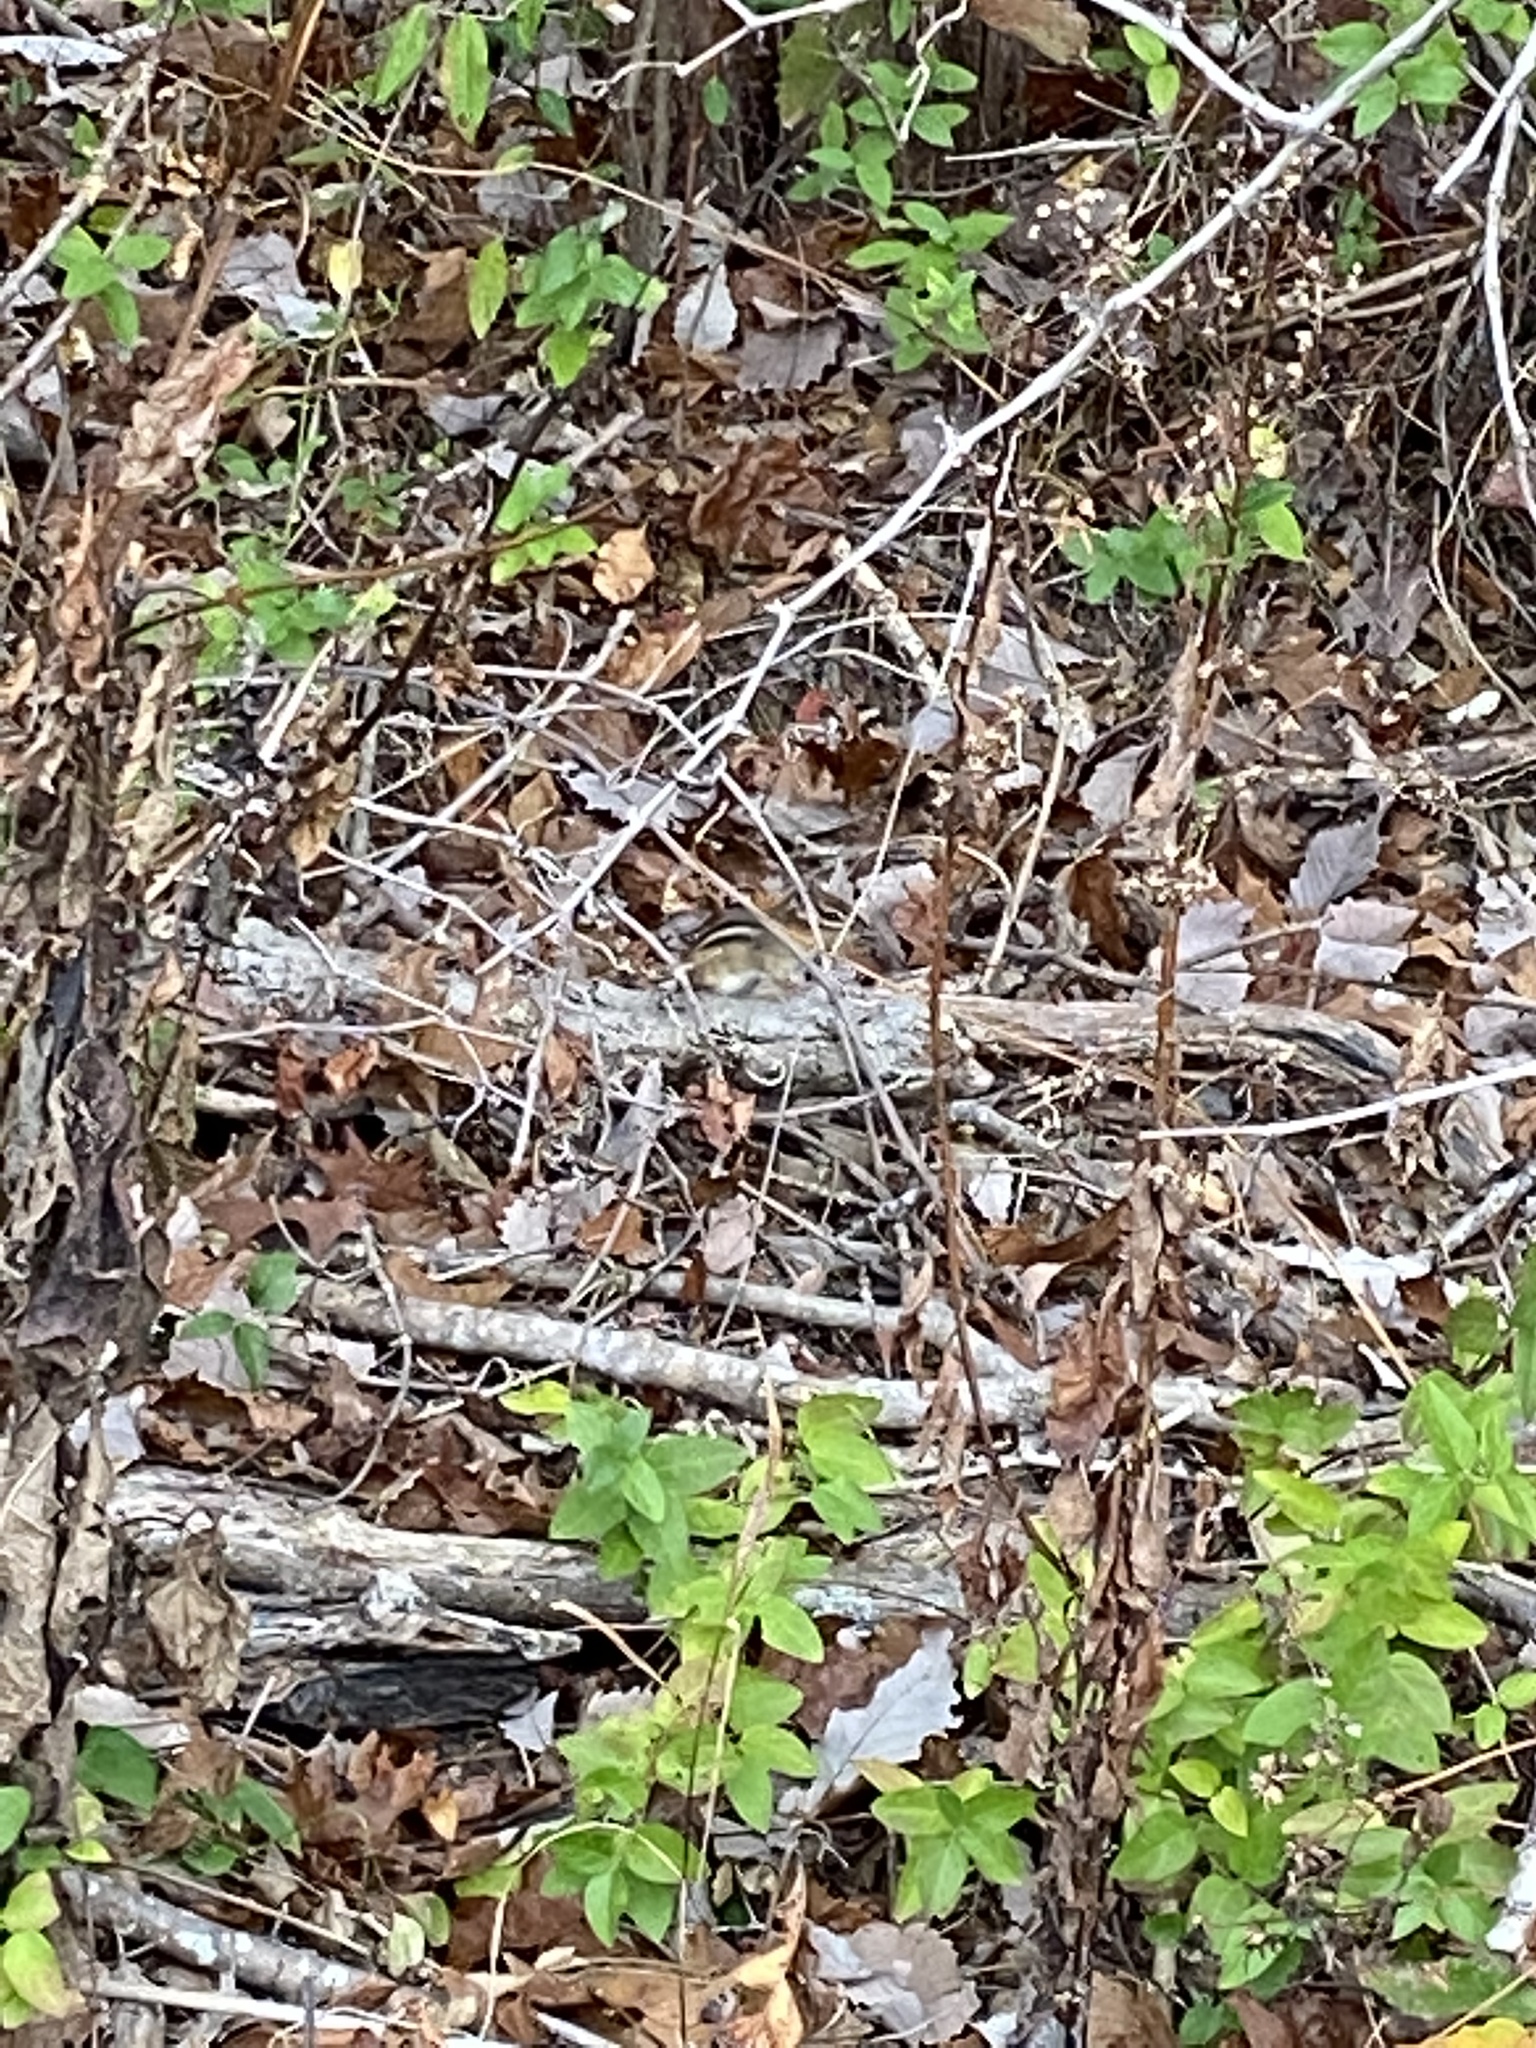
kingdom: Animalia
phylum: Chordata
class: Mammalia
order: Rodentia
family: Sciuridae
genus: Tamias
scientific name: Tamias striatus
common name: Eastern chipmunk
